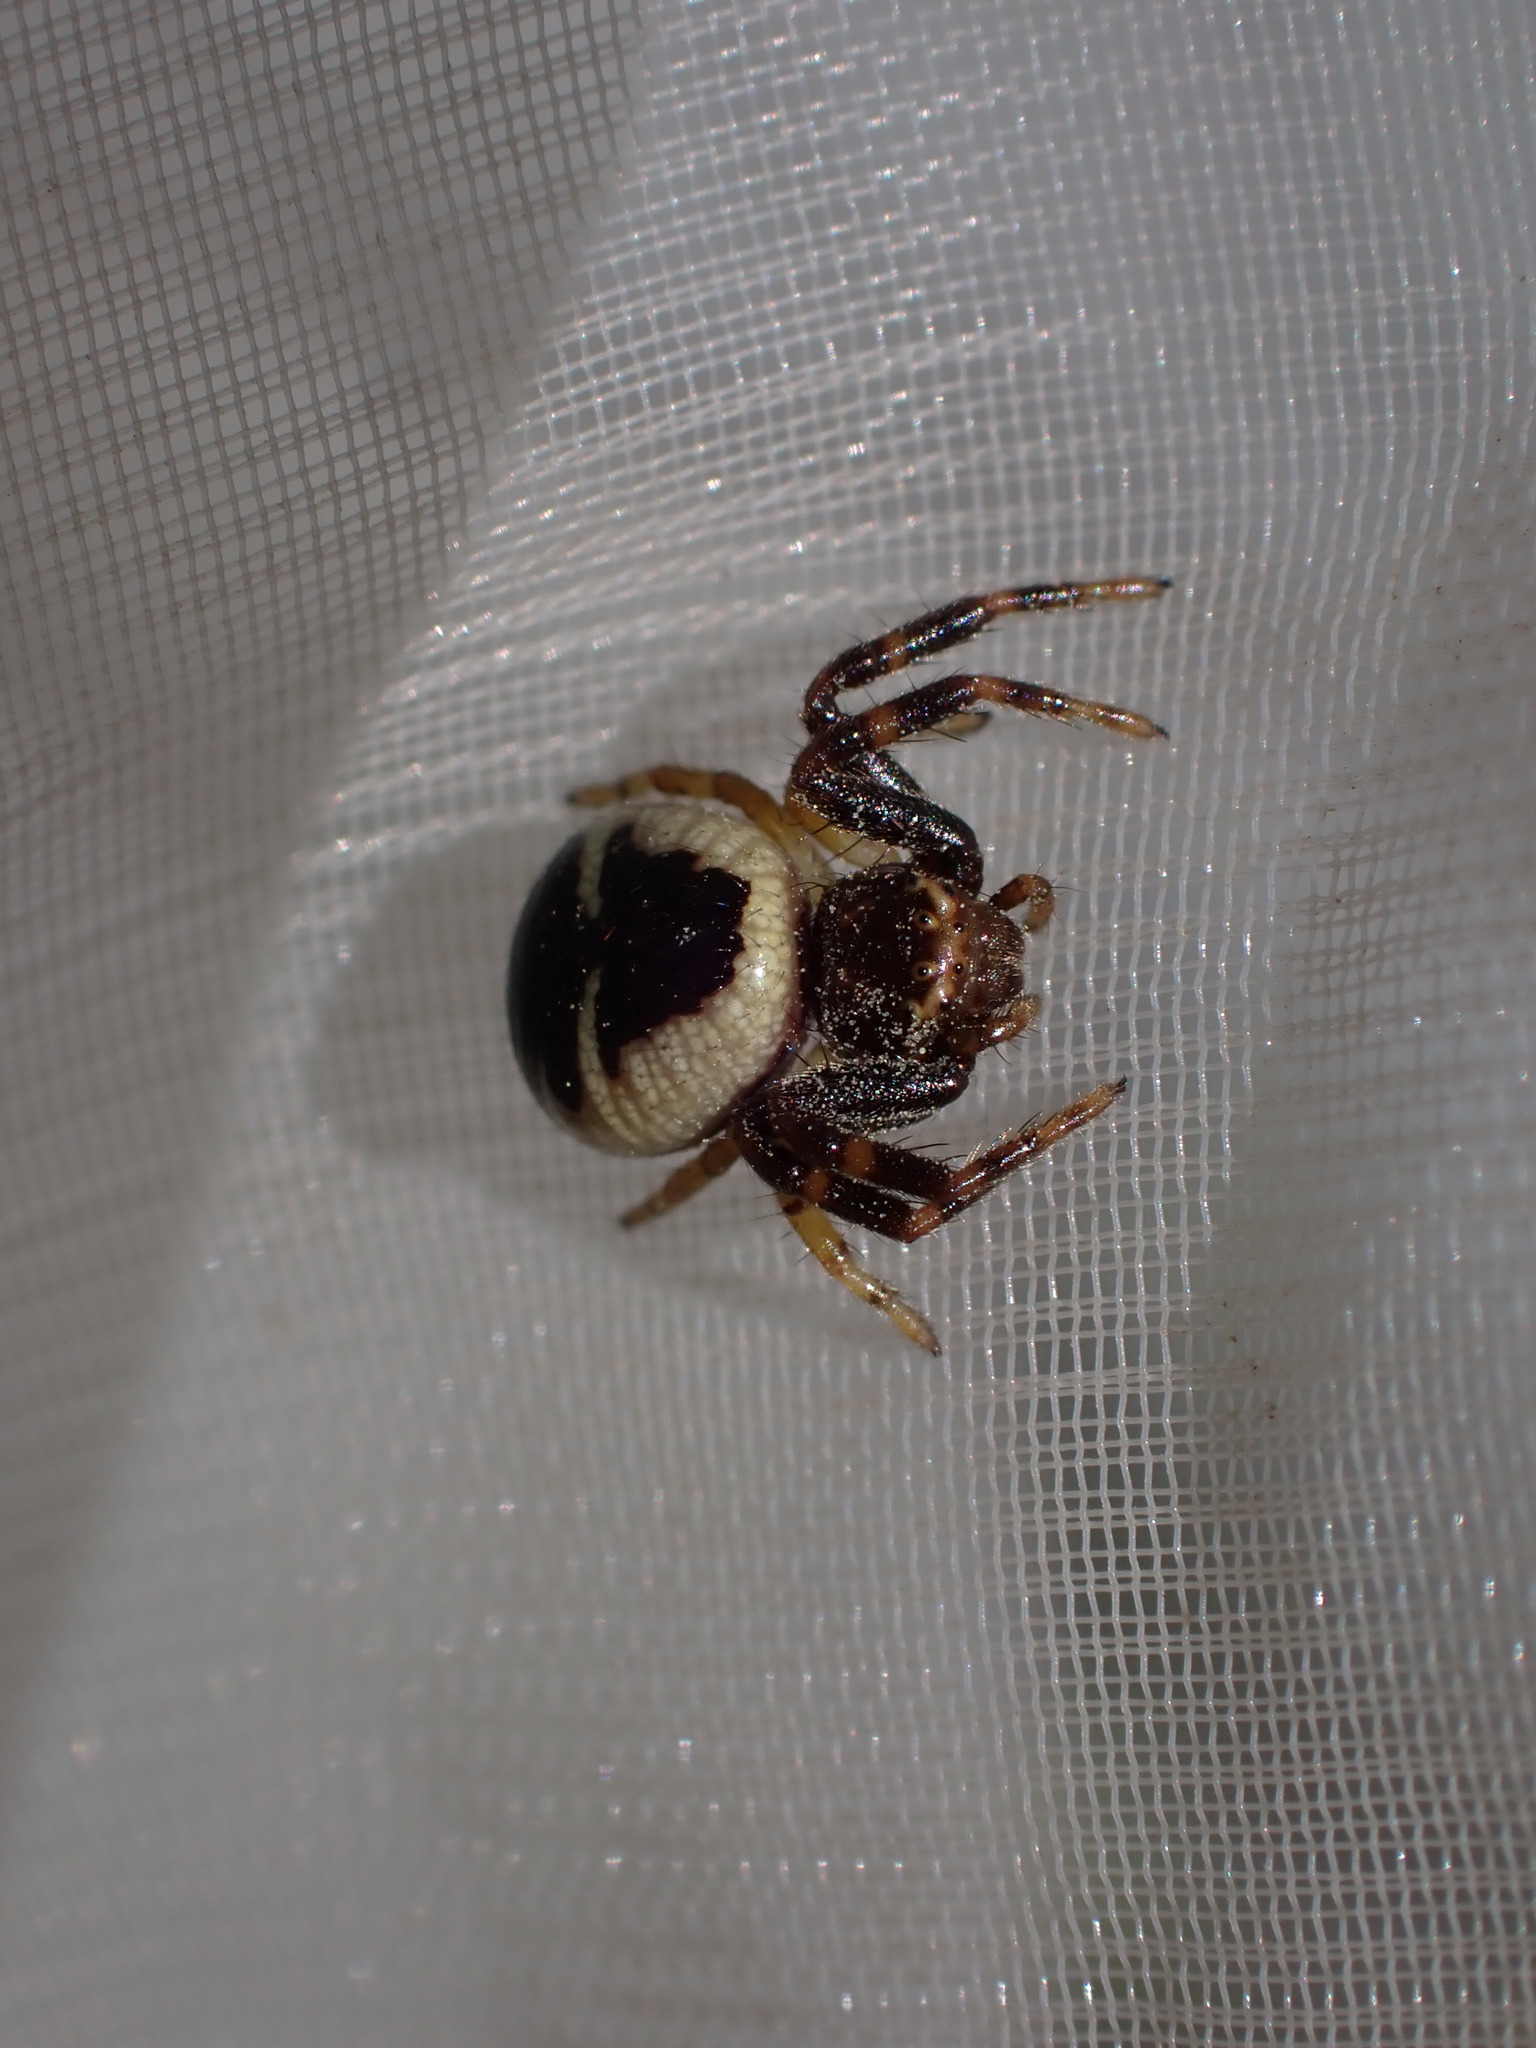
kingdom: Animalia
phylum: Arthropoda
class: Arachnida
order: Araneae
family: Thomisidae
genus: Synema
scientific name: Synema globosum
